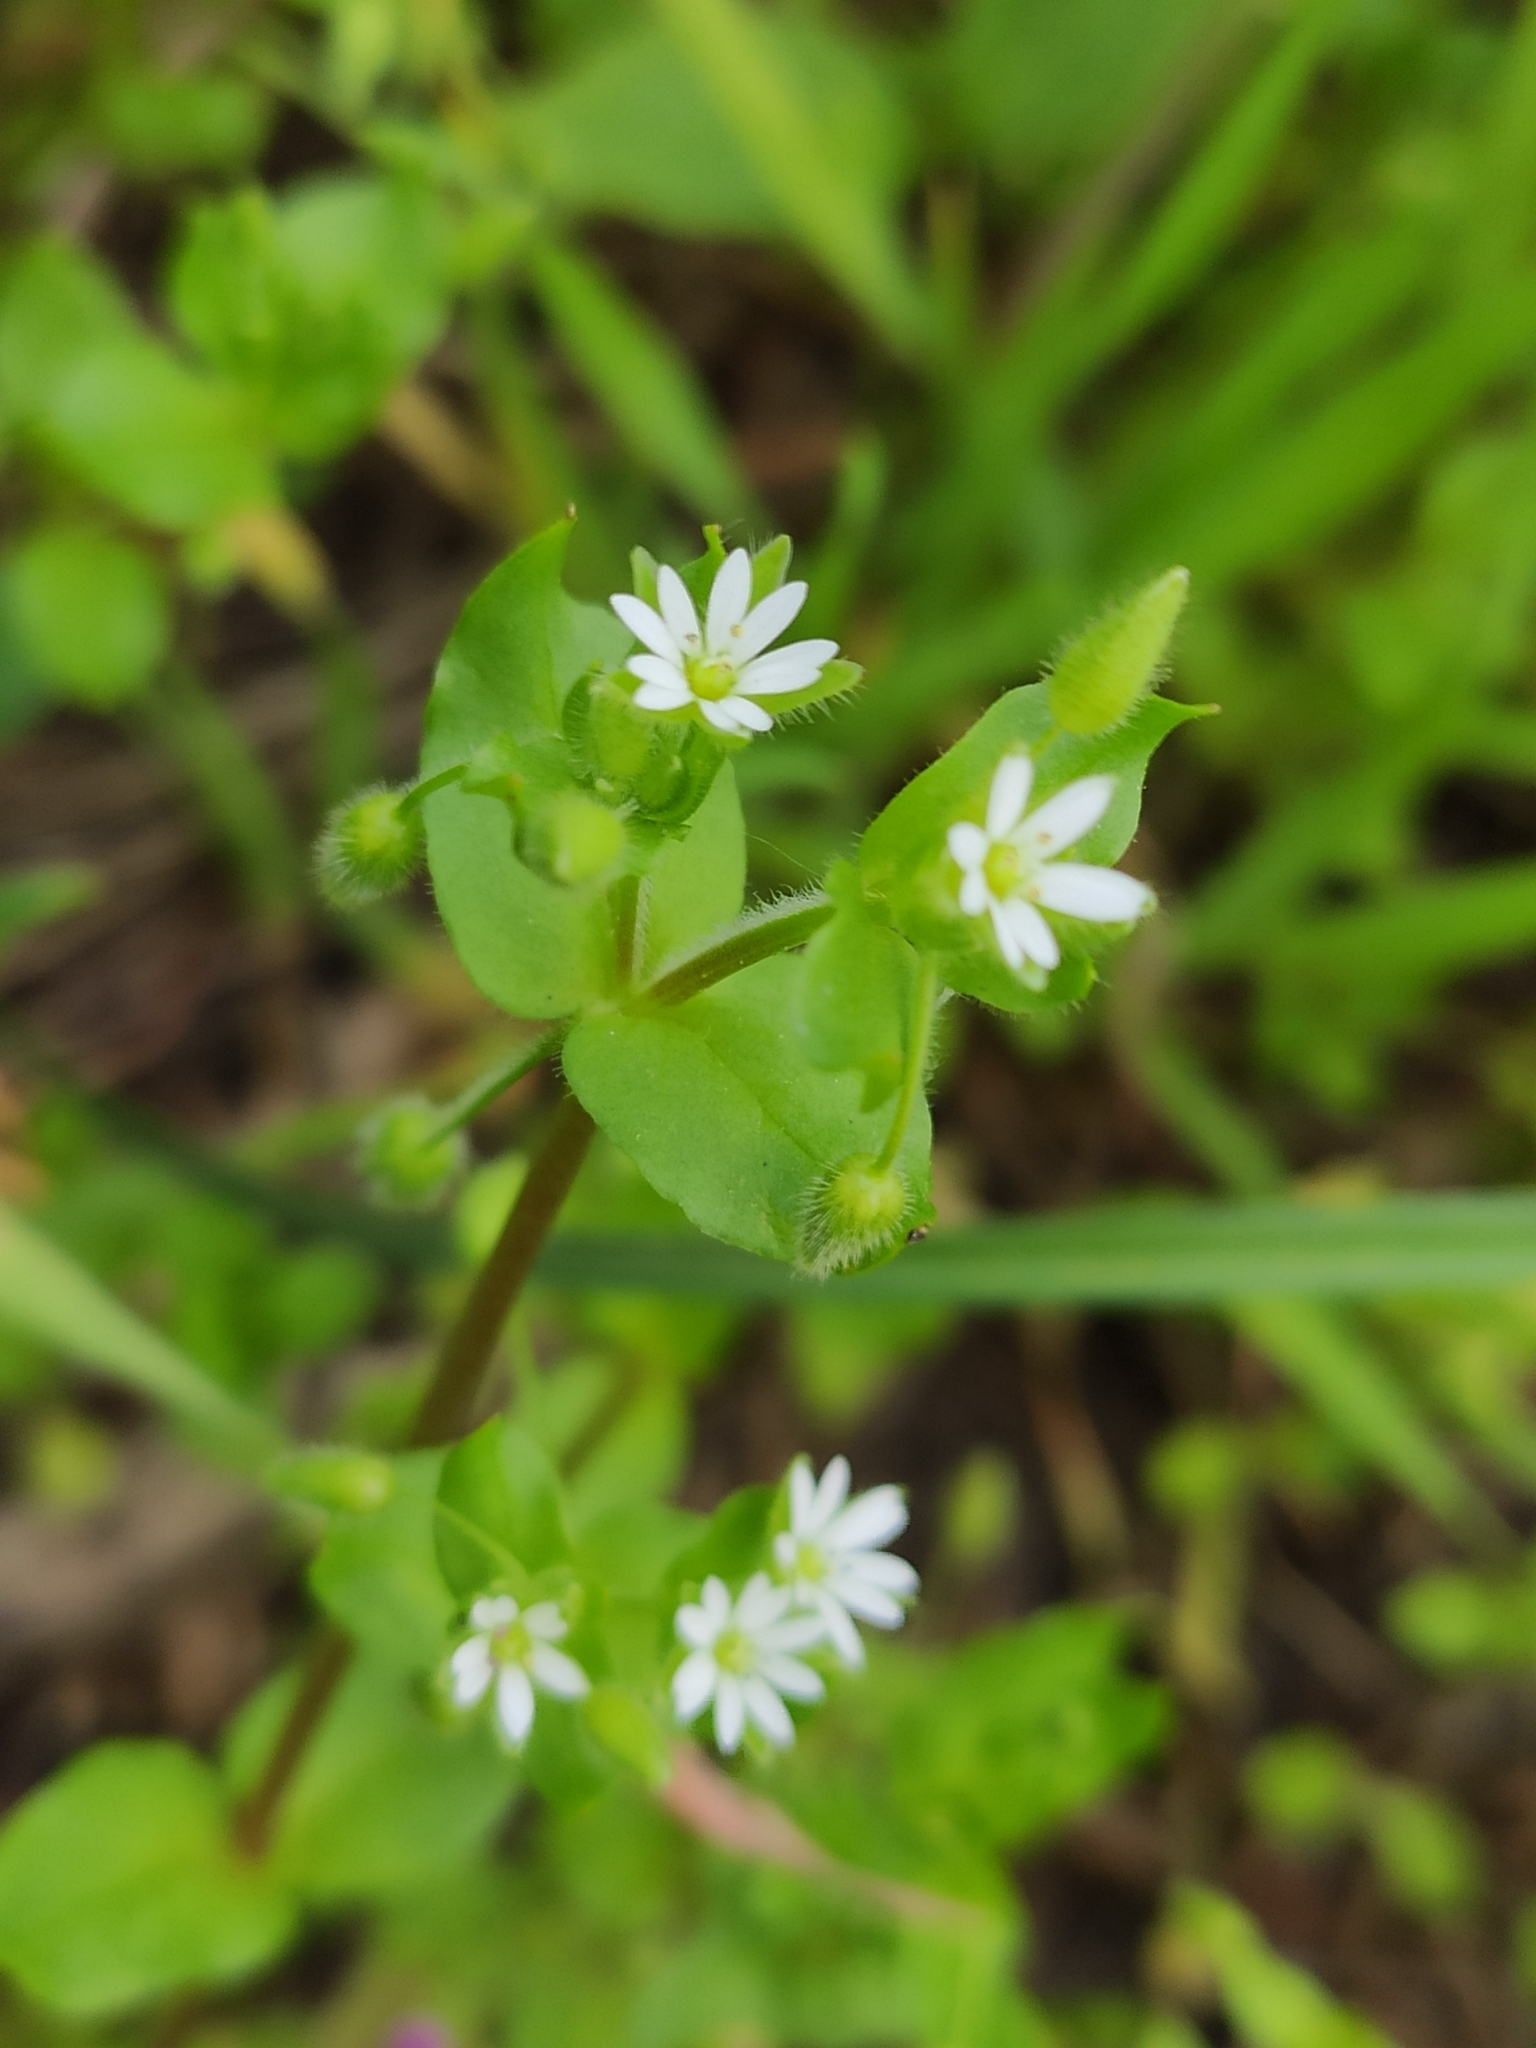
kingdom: Plantae
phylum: Tracheophyta
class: Magnoliopsida
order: Caryophyllales
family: Caryophyllaceae
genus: Stellaria
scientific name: Stellaria media
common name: Common chickweed
